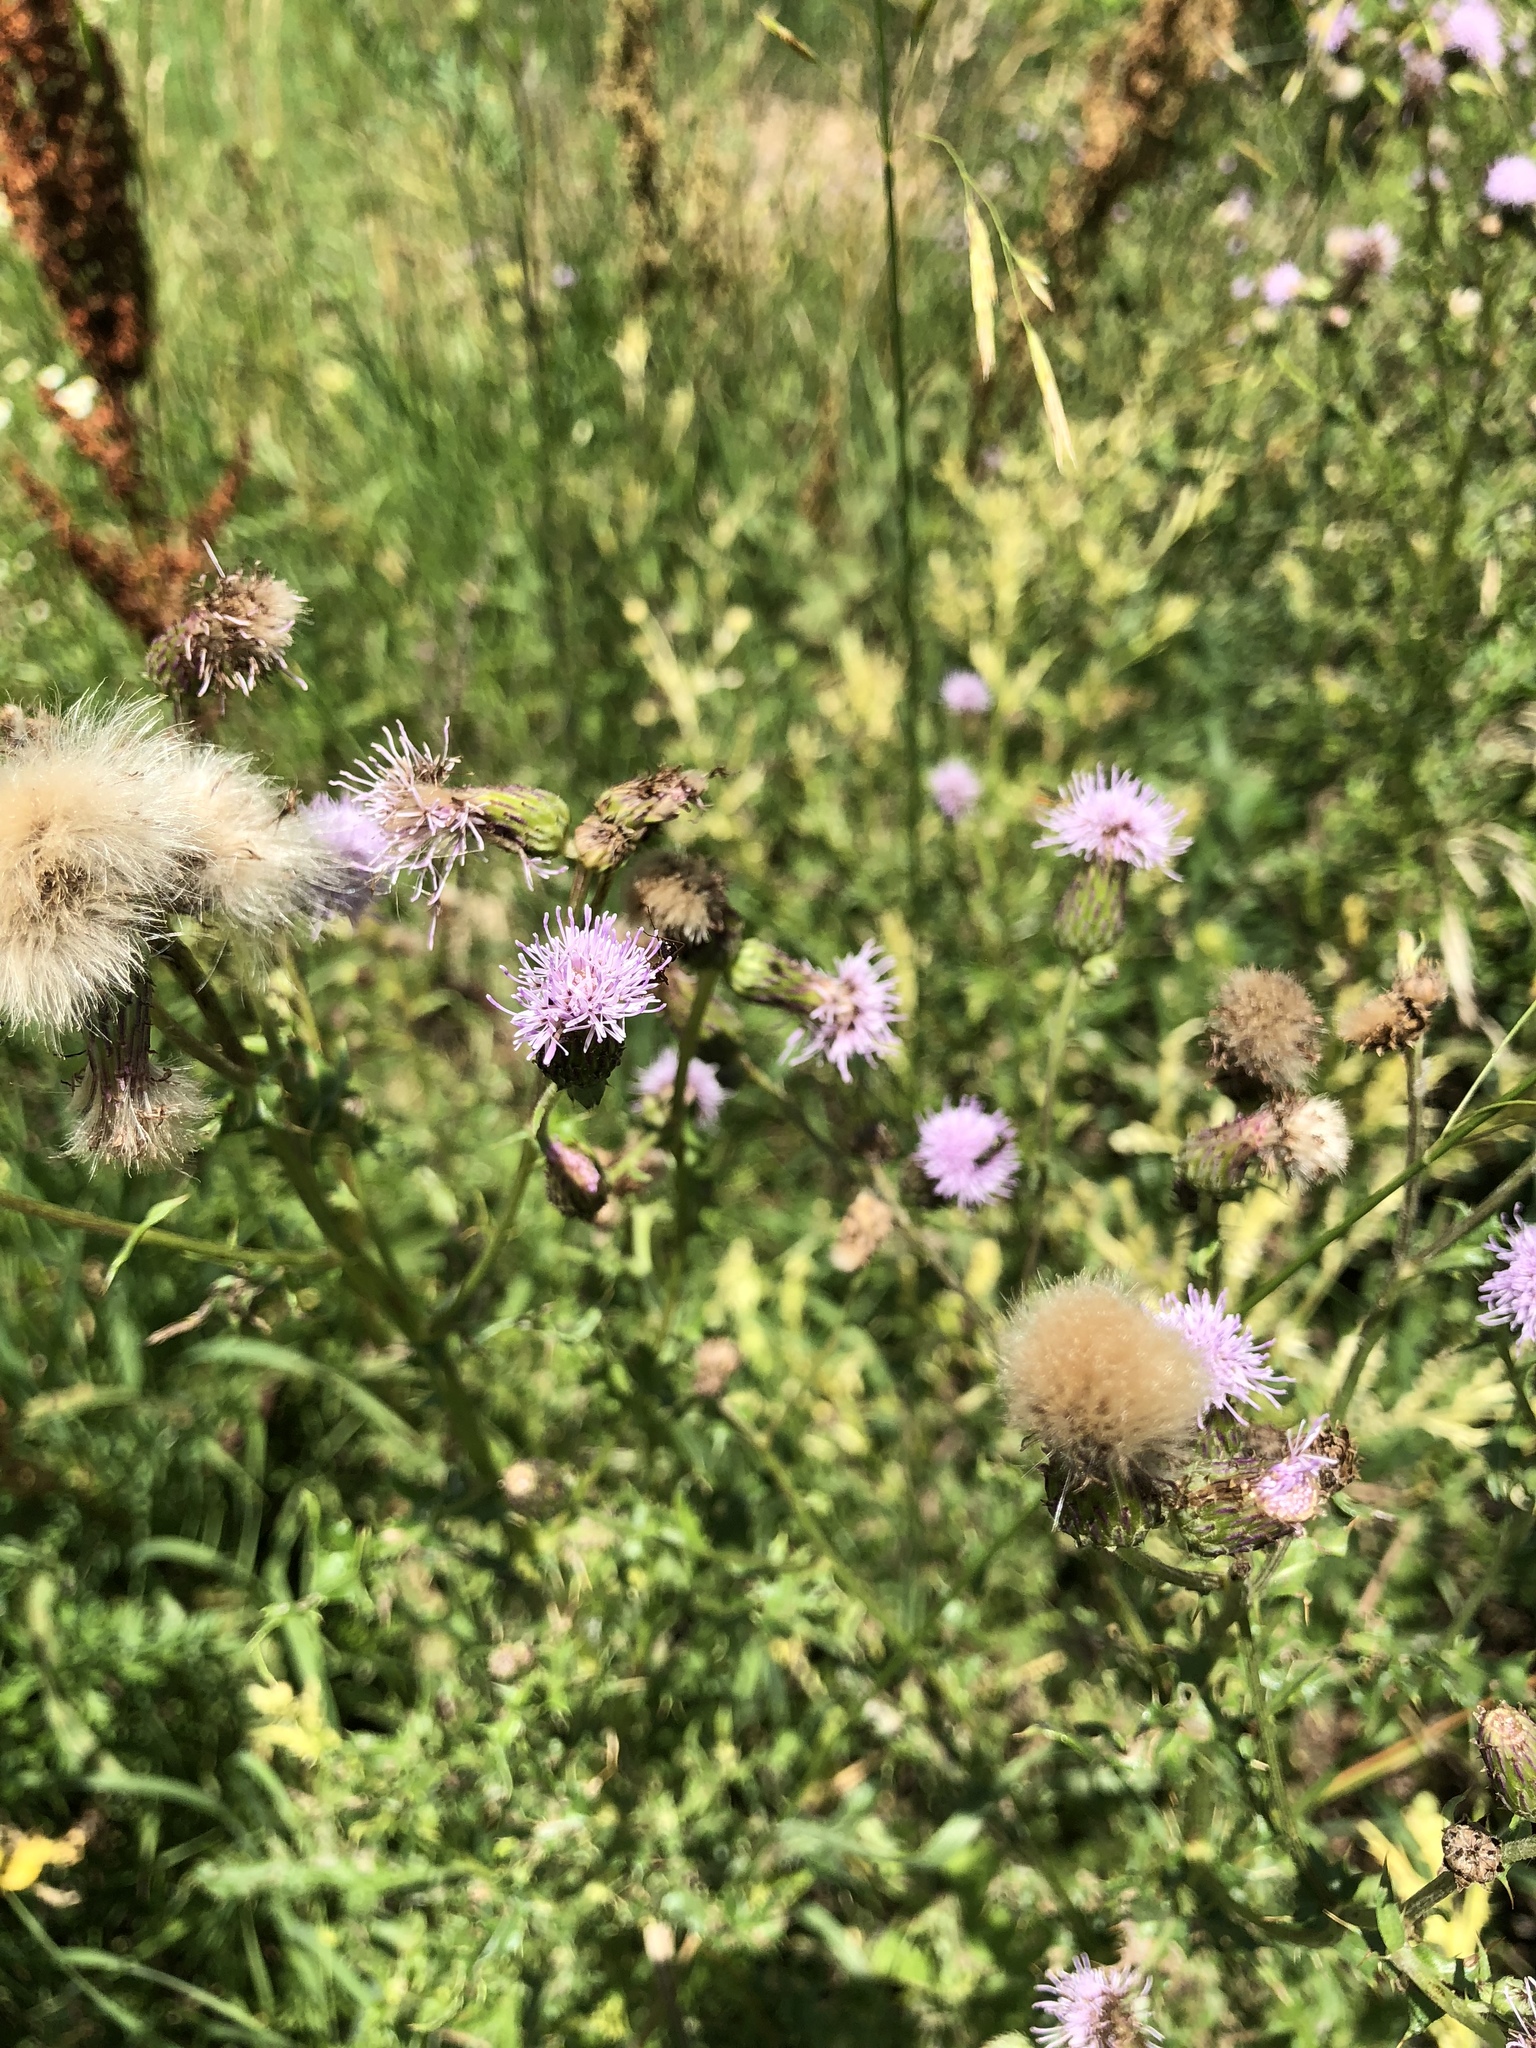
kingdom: Plantae
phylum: Tracheophyta
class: Magnoliopsida
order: Asterales
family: Asteraceae
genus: Centaurea
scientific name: Centaurea stoebe
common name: Spotted knapweed
